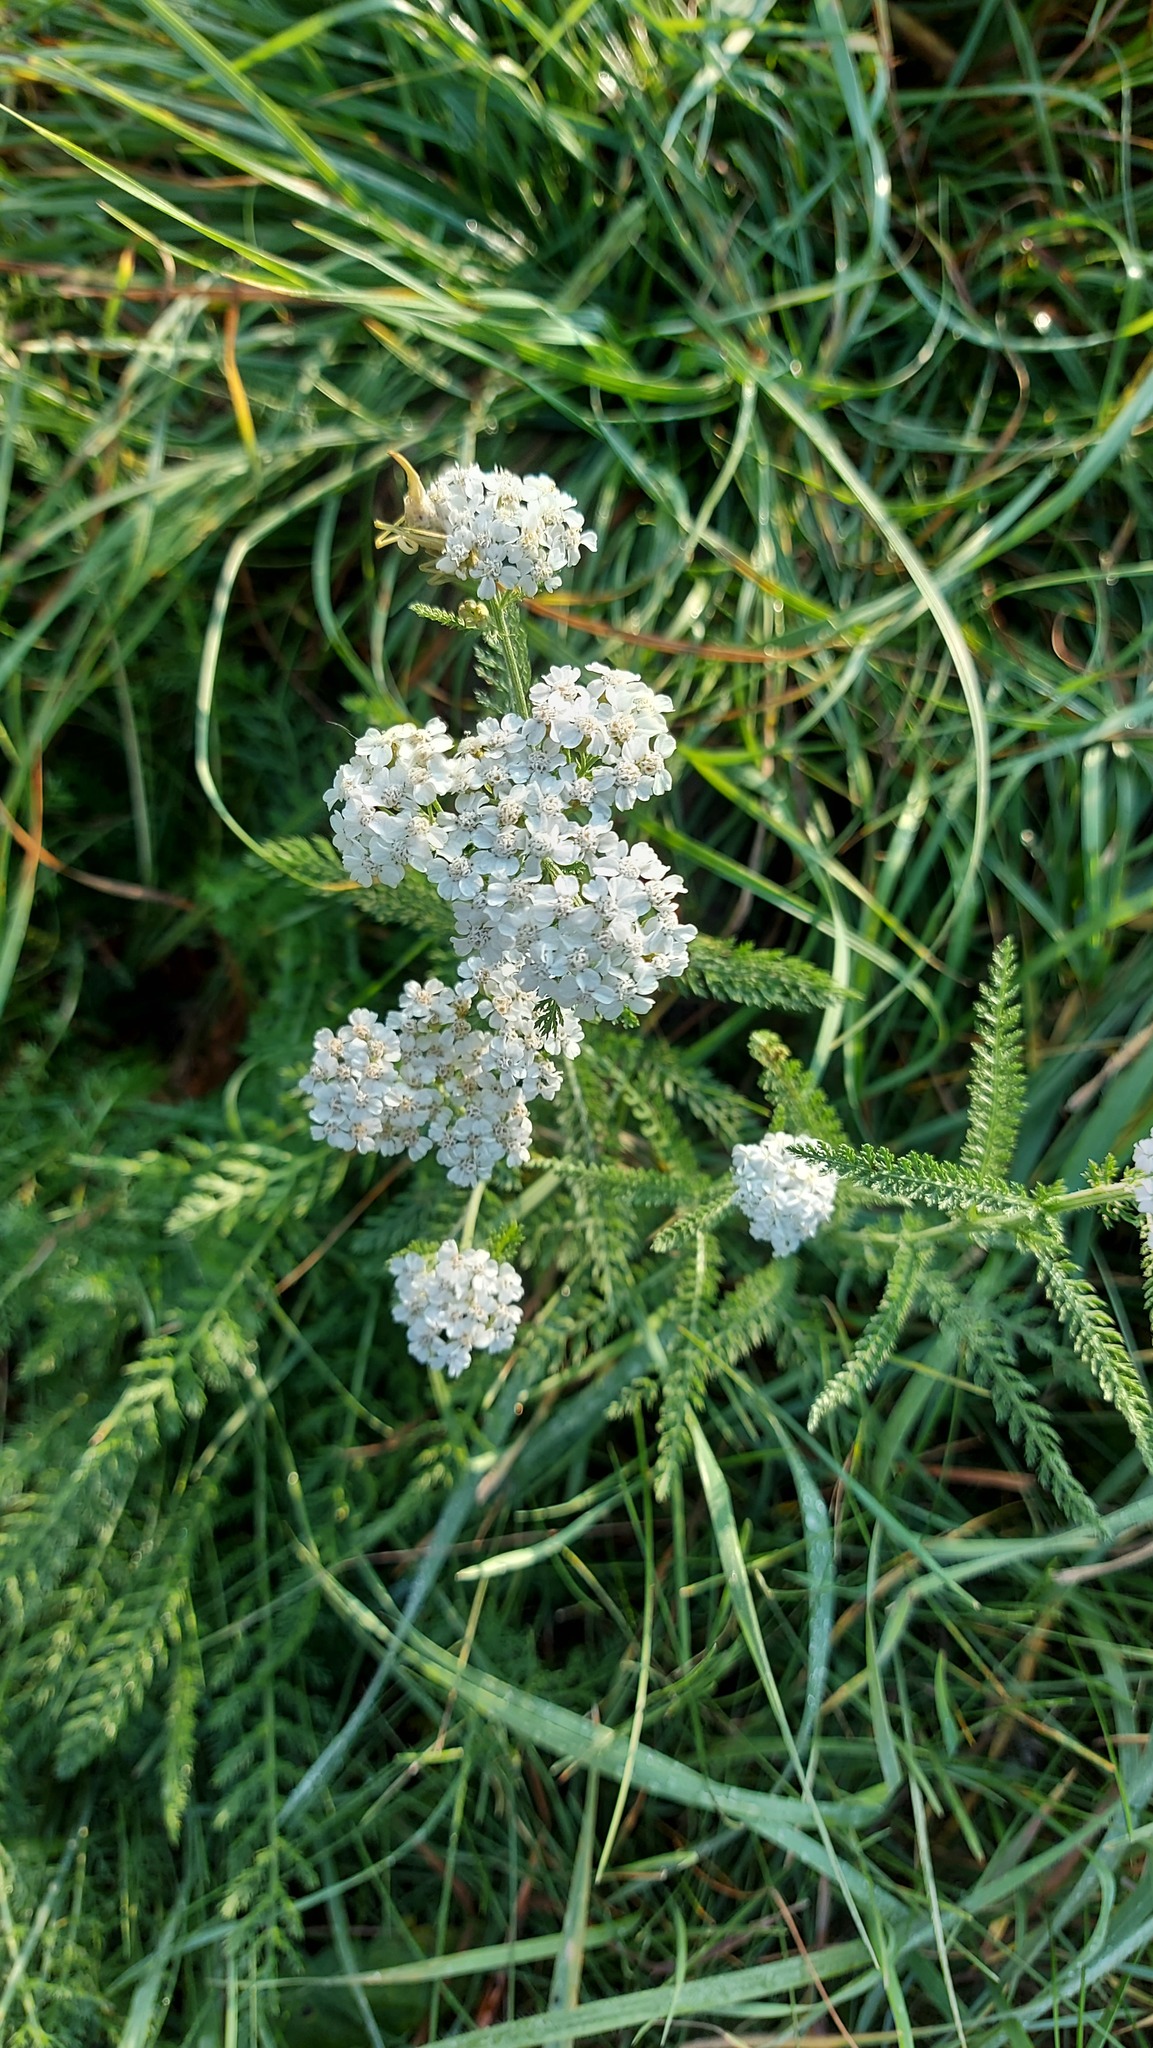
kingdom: Plantae
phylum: Tracheophyta
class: Magnoliopsida
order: Asterales
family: Asteraceae
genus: Achillea
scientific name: Achillea millefolium
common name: Yarrow
